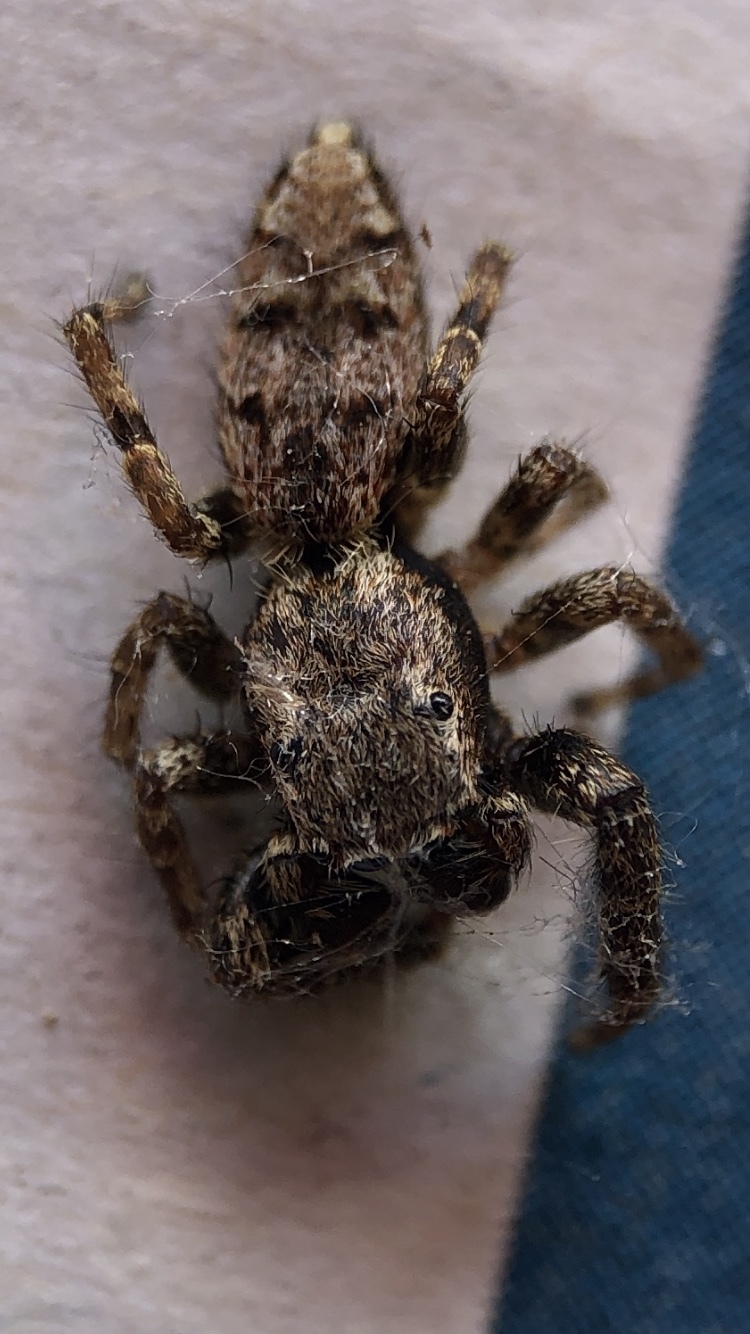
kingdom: Animalia
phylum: Arthropoda
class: Arachnida
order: Araneae
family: Salticidae
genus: Marpissa
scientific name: Marpissa muscosa
